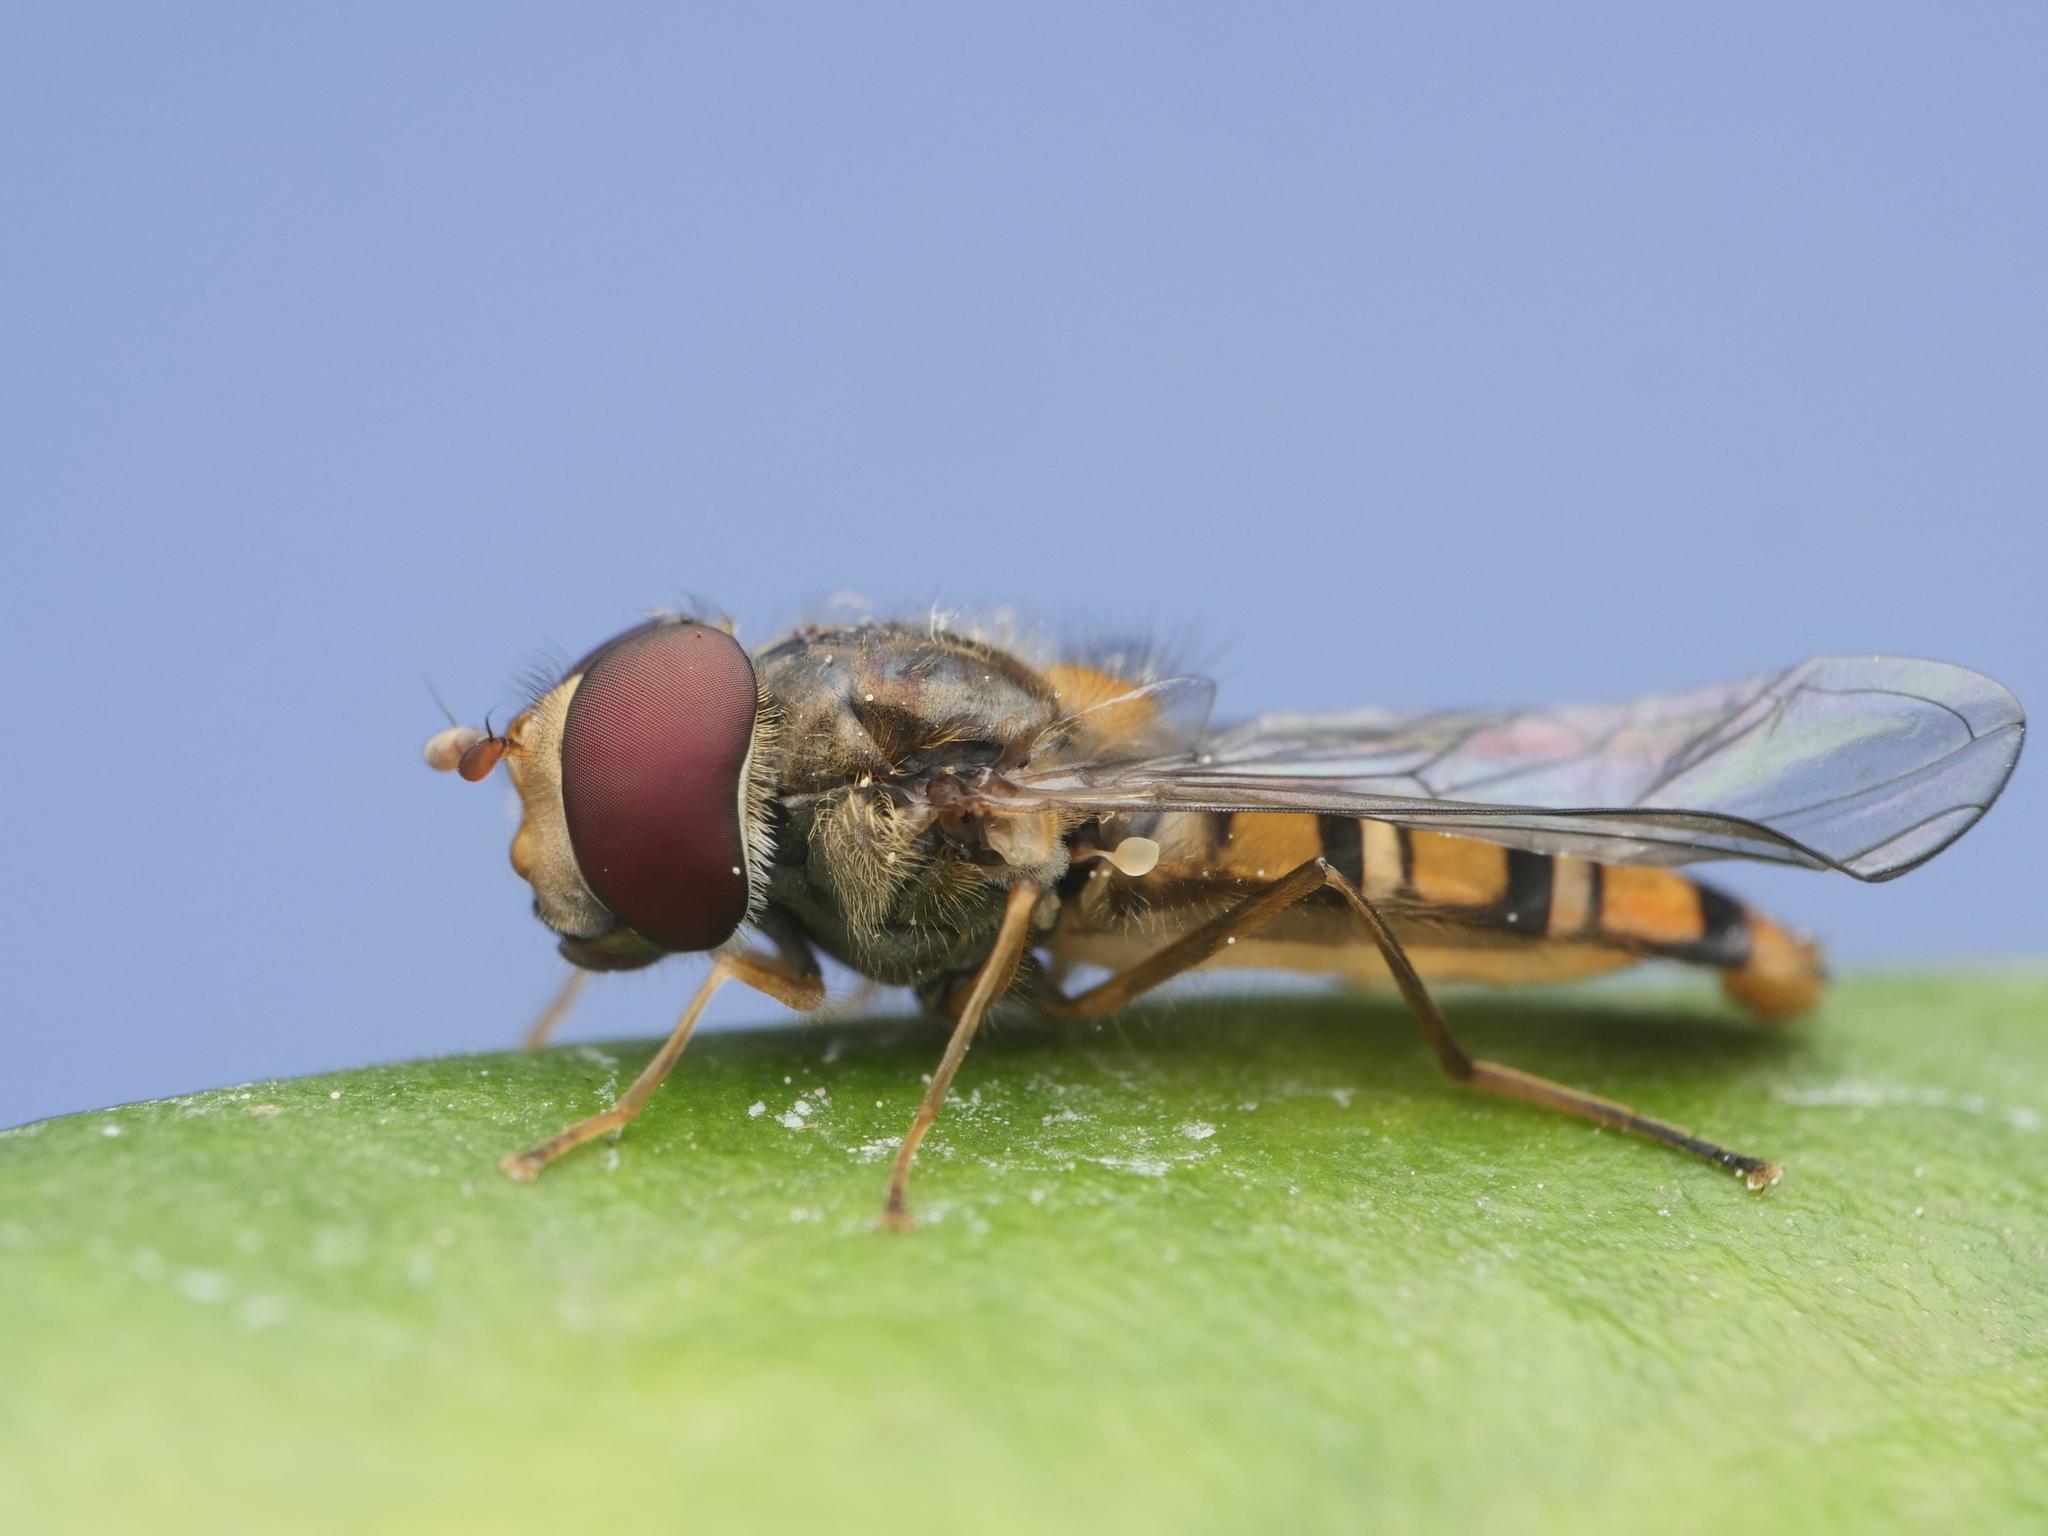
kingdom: Animalia
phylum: Arthropoda
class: Insecta
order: Diptera
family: Syrphidae
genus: Episyrphus
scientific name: Episyrphus balteatus
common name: Marmalade hoverfly
